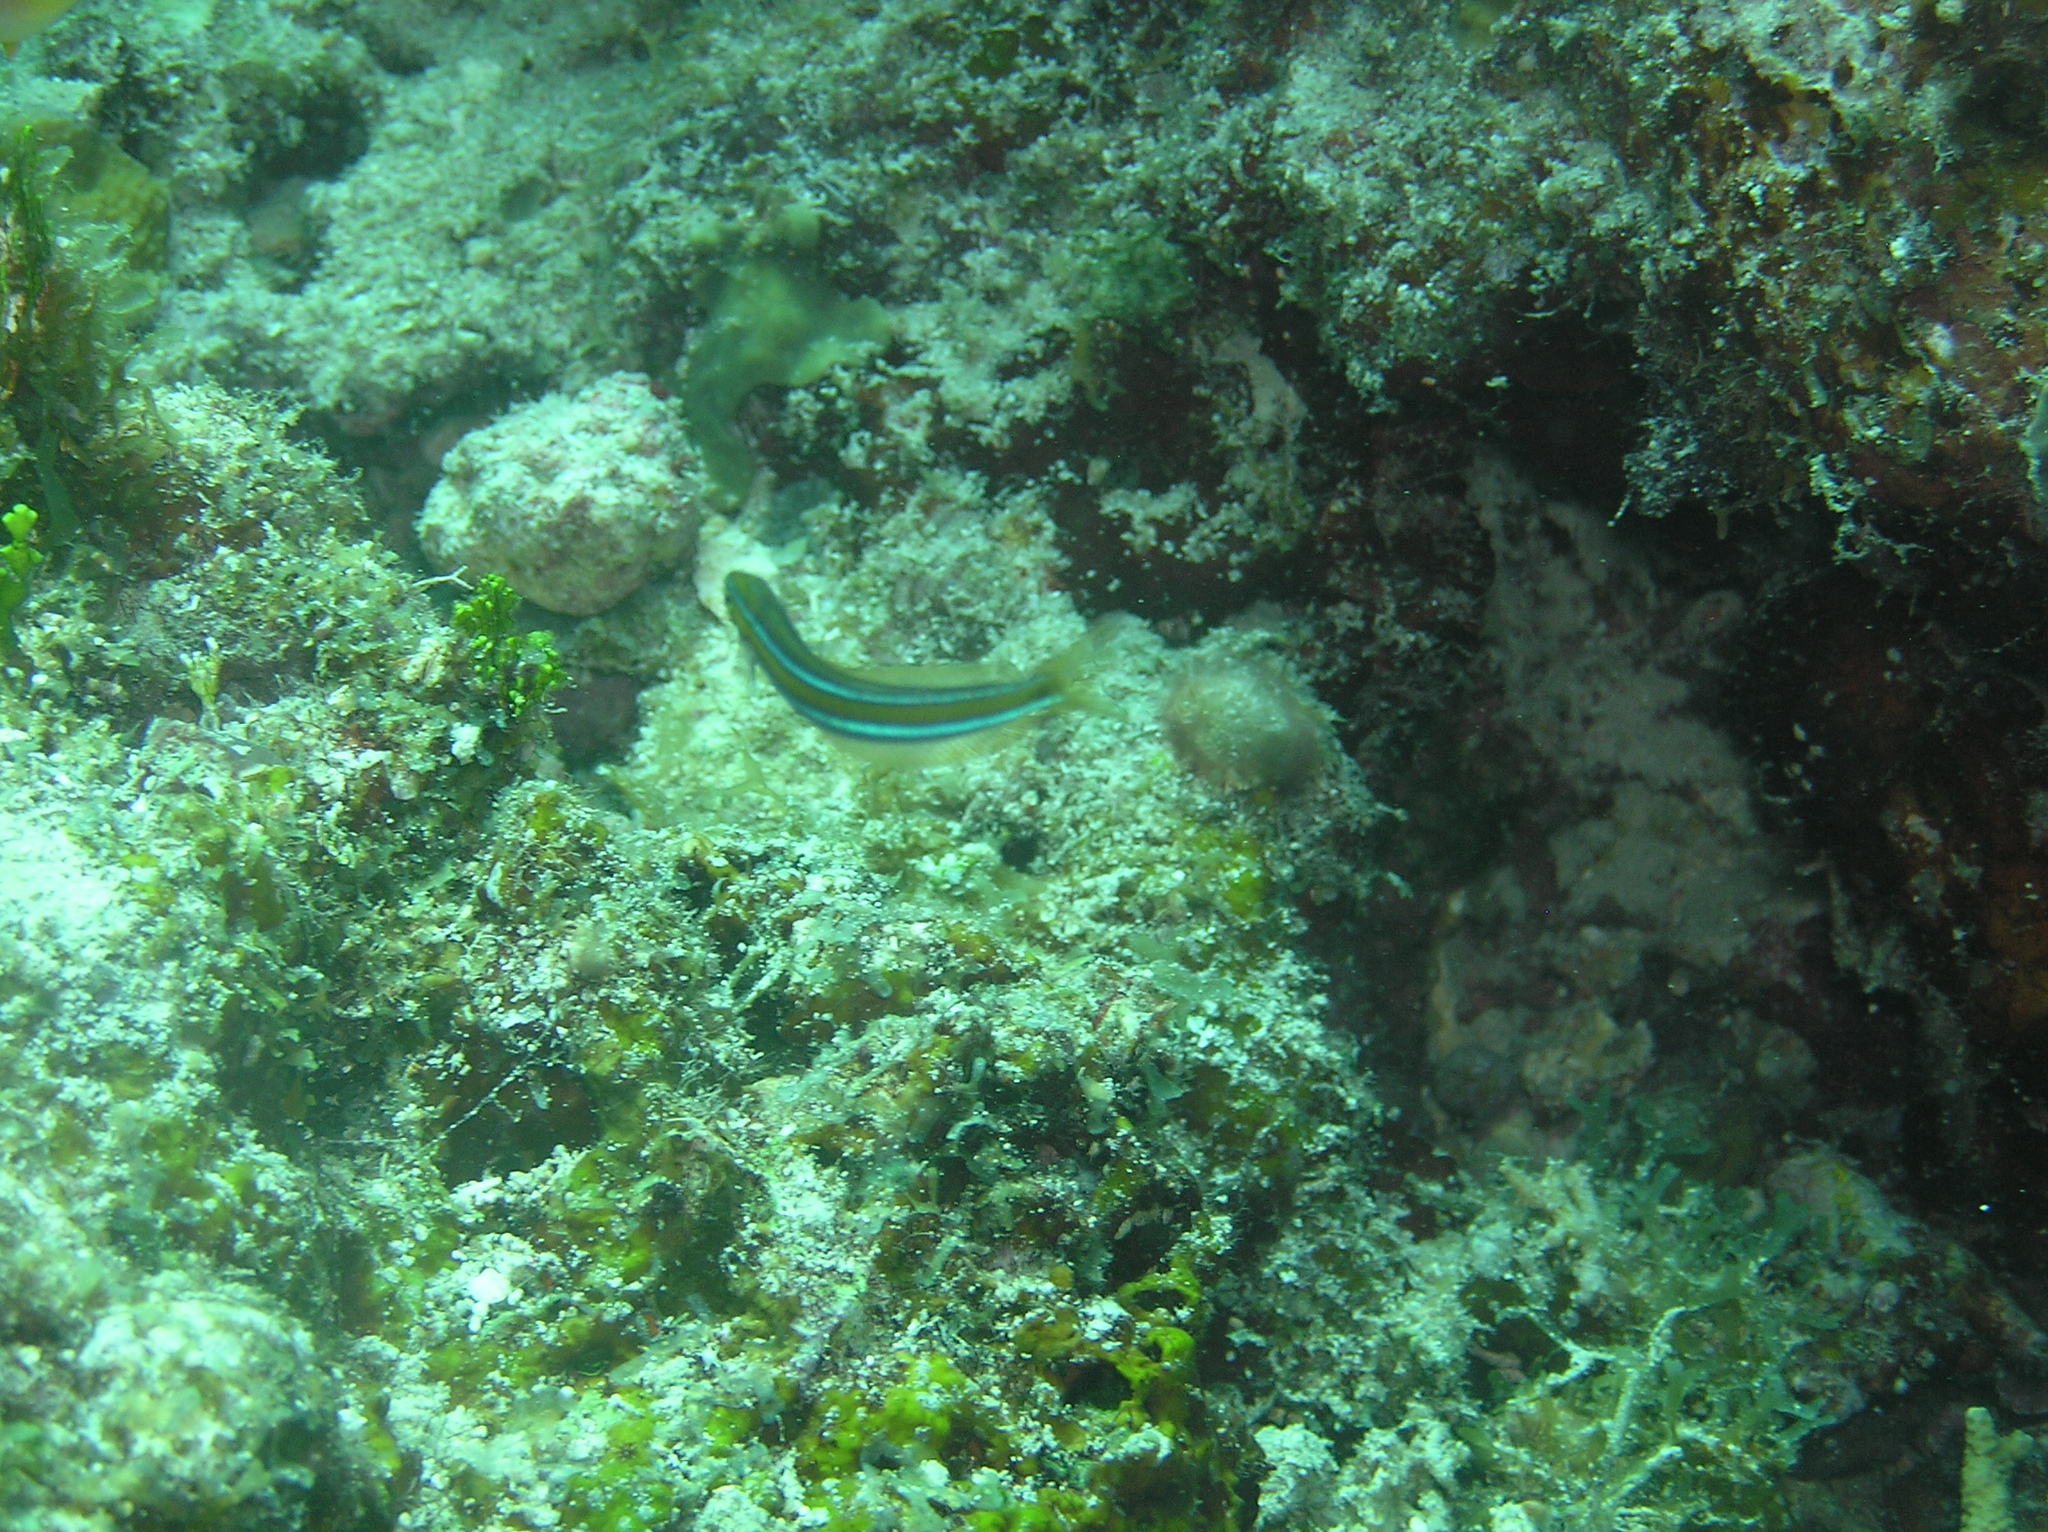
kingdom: Animalia
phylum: Chordata
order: Perciformes
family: Blenniidae
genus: Plagiotremus
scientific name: Plagiotremus rhinorhynchos
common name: Bluestriped fangblenny
